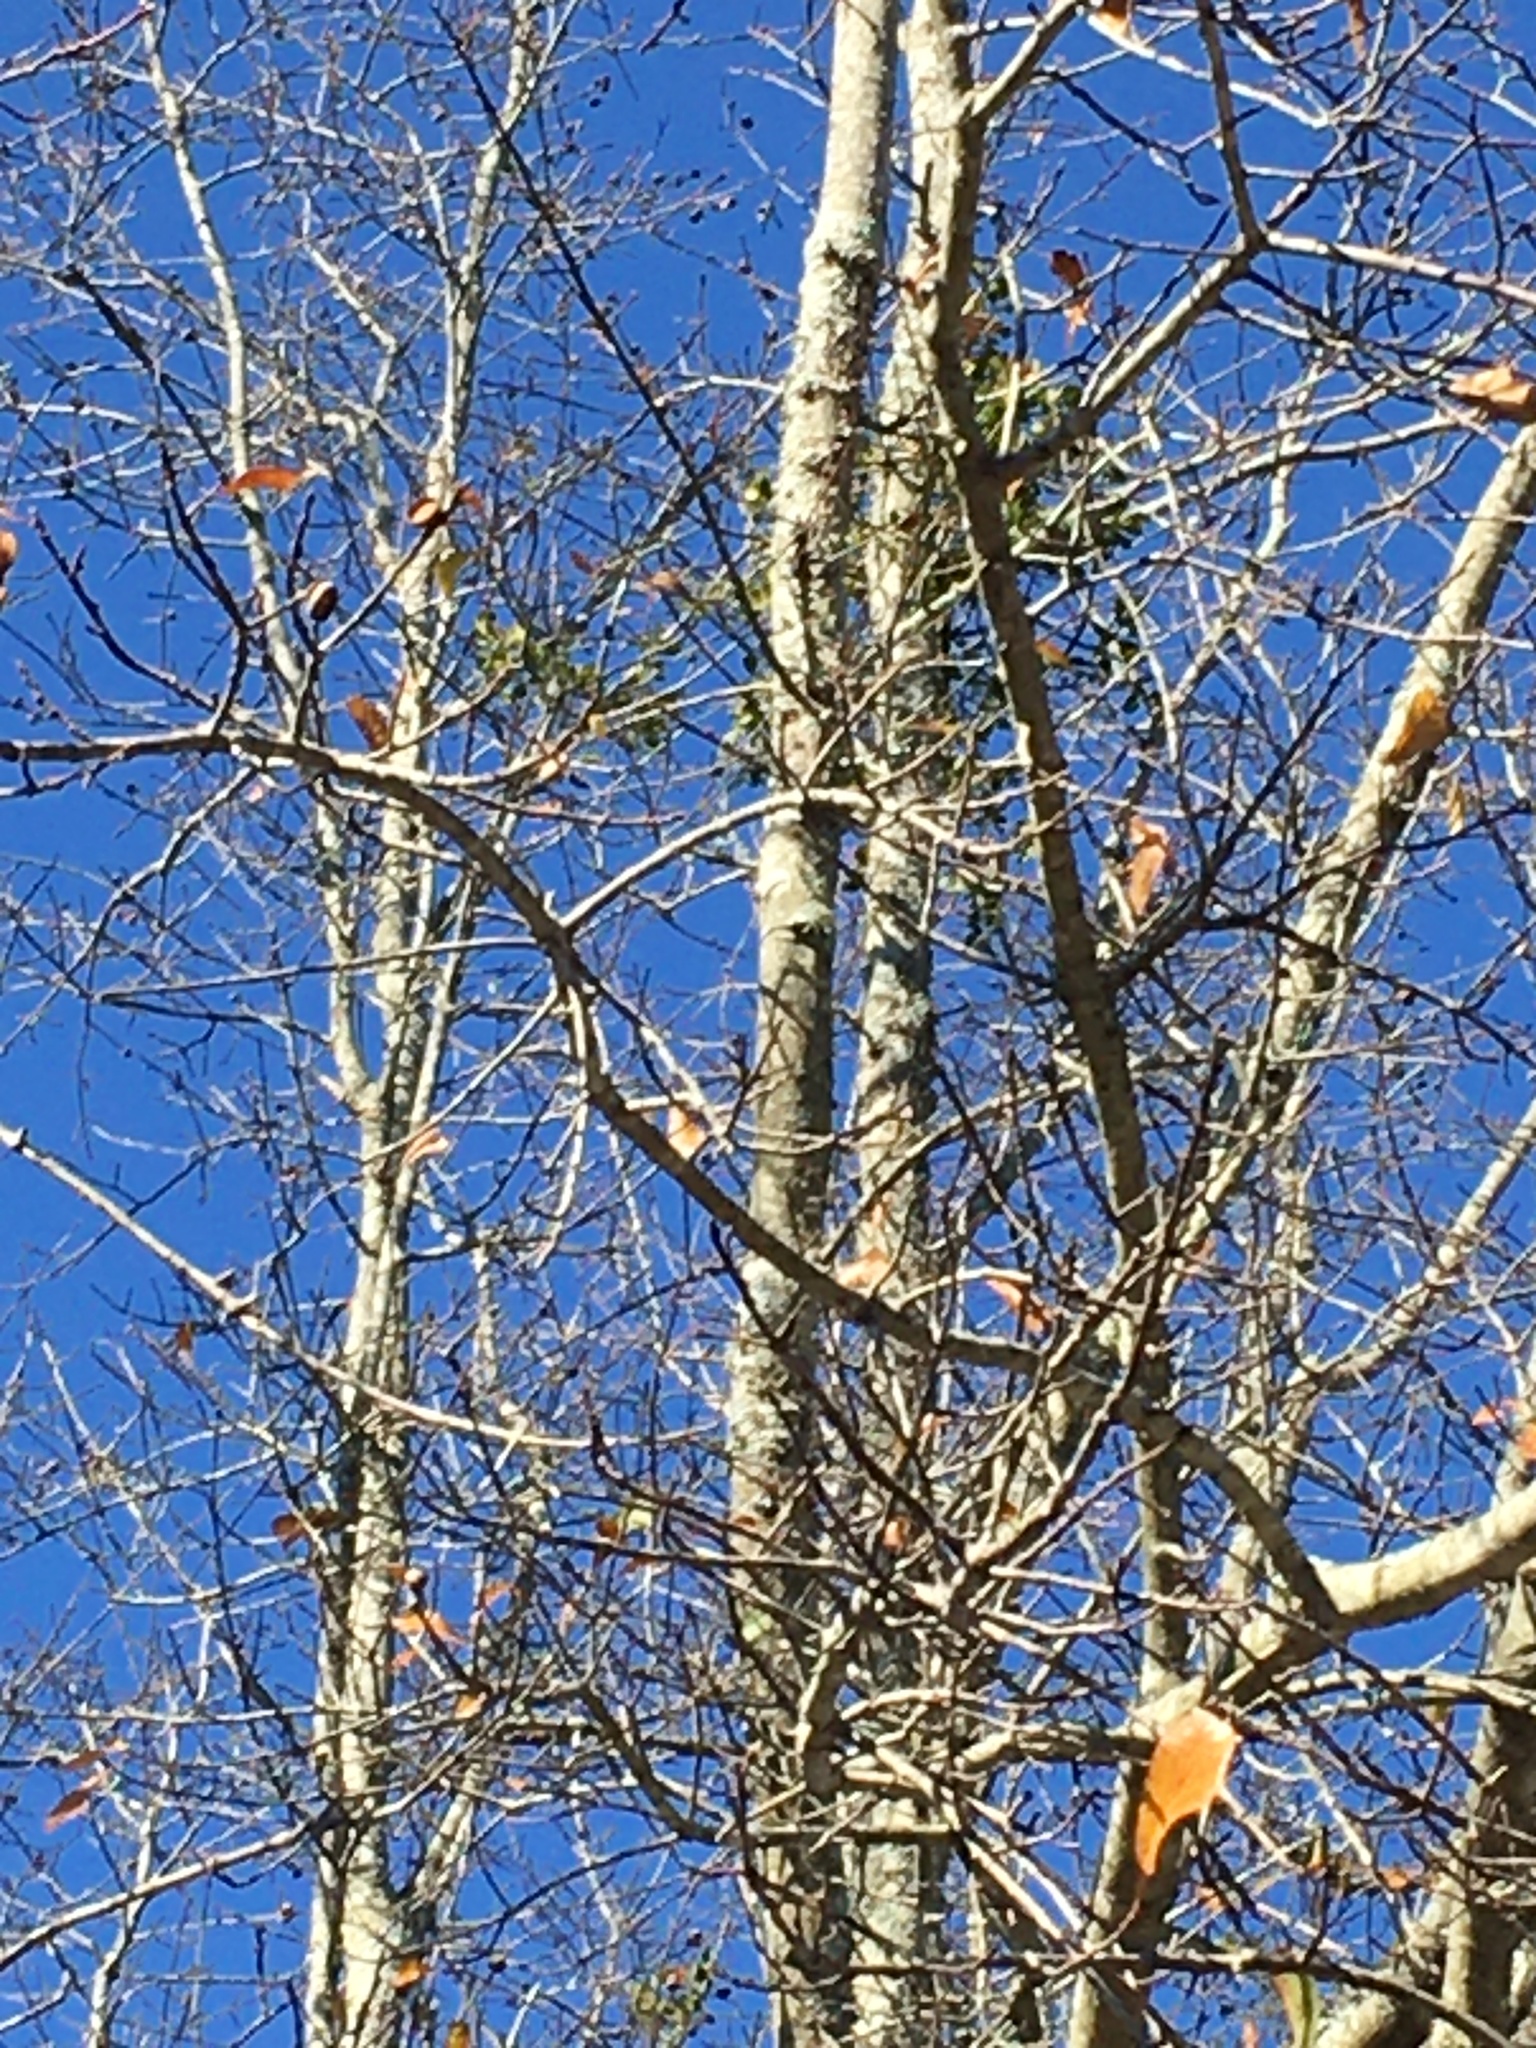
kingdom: Plantae
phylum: Tracheophyta
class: Magnoliopsida
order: Santalales
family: Viscaceae
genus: Phoradendron
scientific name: Phoradendron leucarpum
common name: Pacific mistletoe
